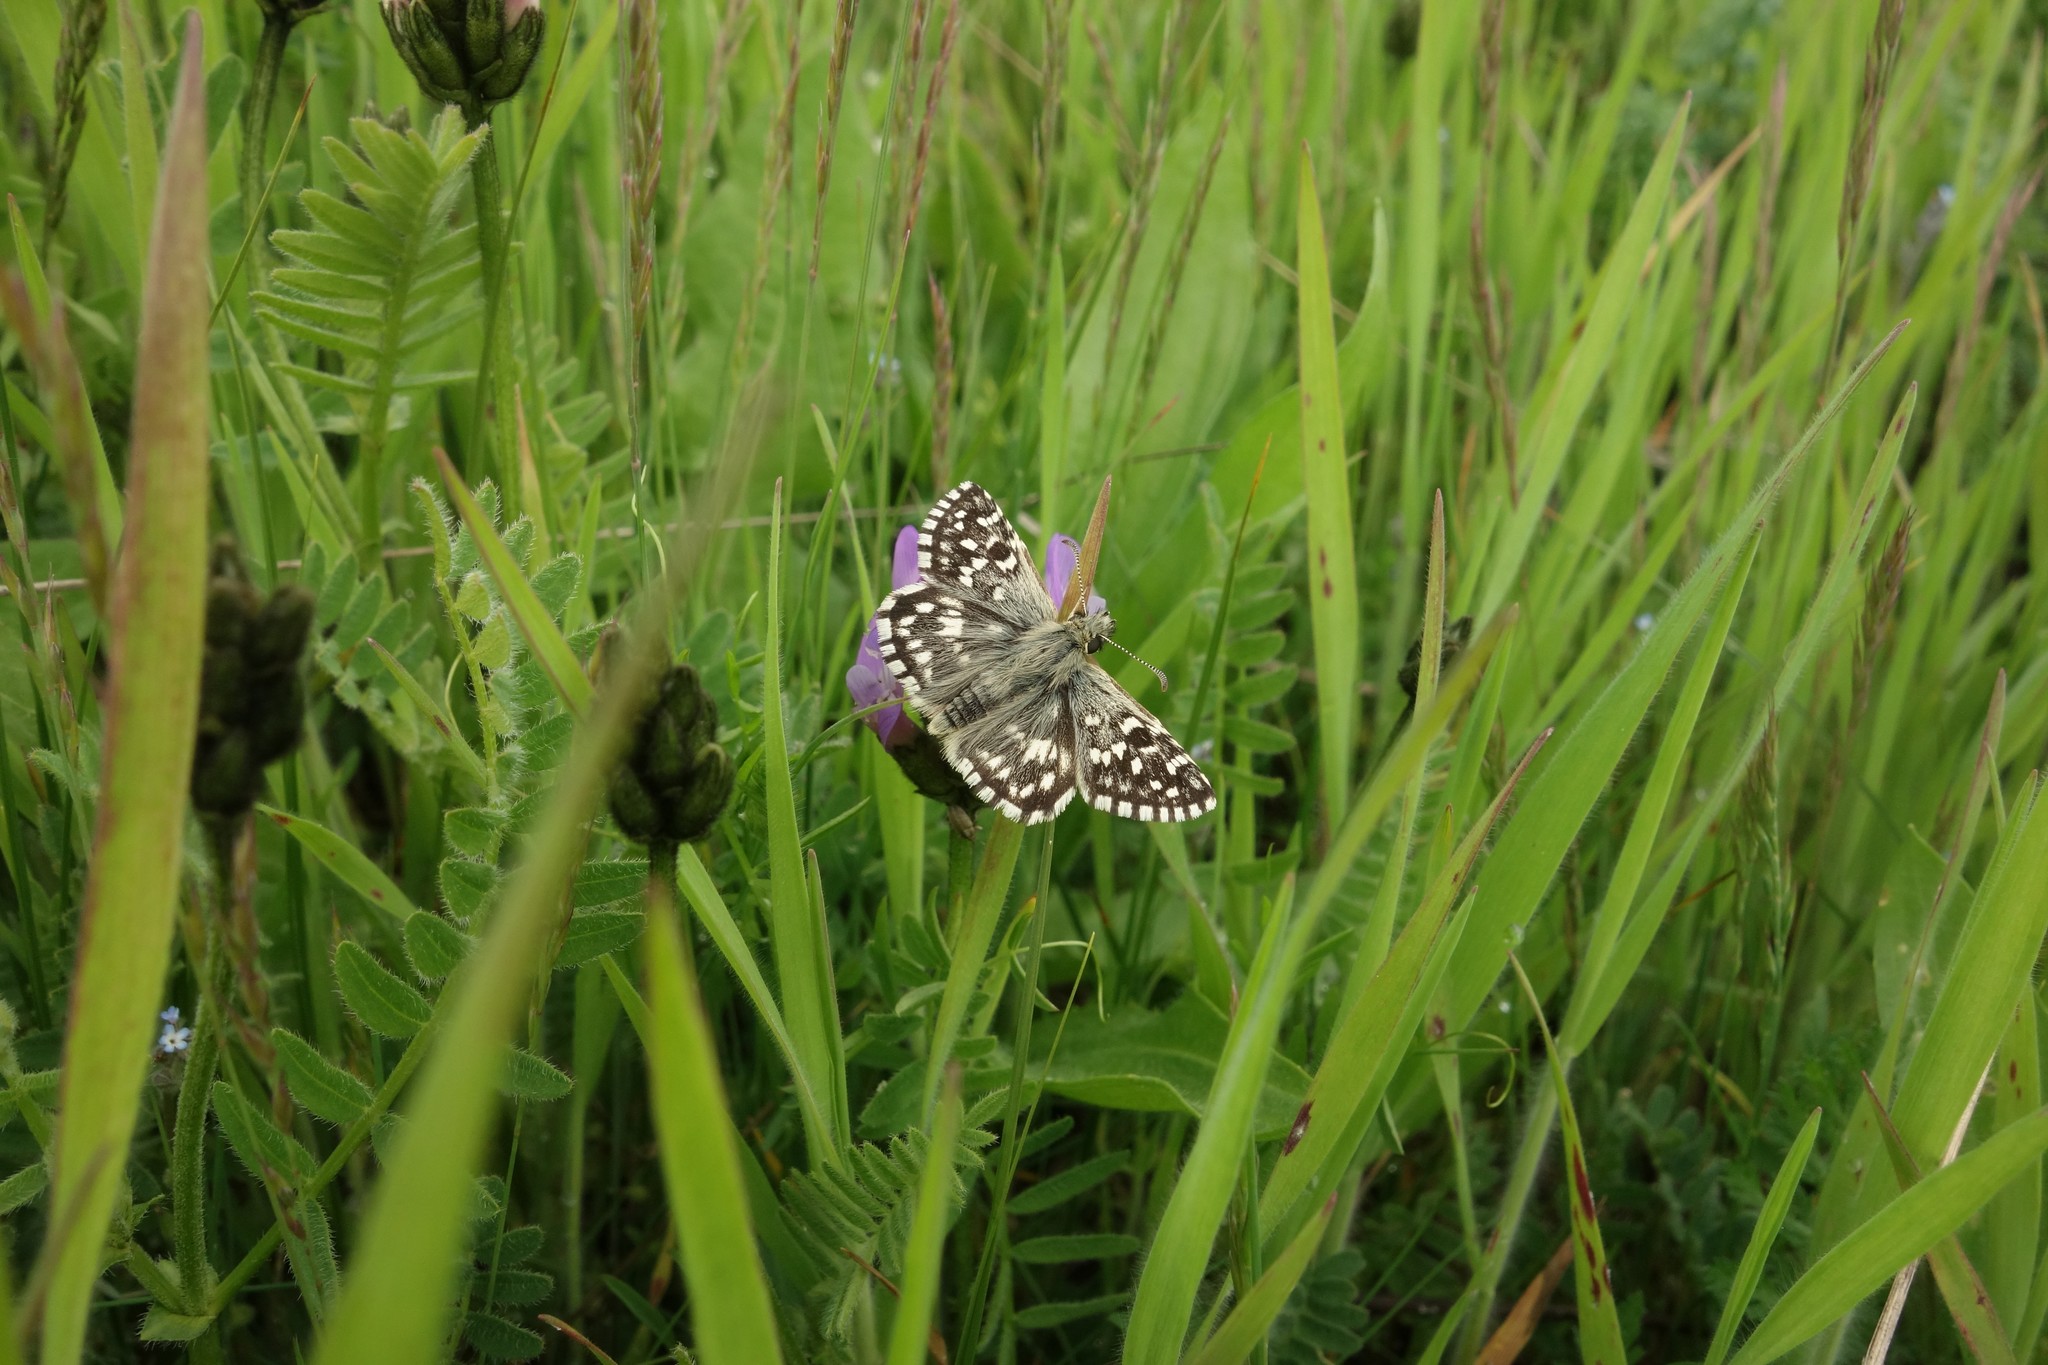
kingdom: Animalia
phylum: Arthropoda
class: Insecta
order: Lepidoptera
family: Hesperiidae
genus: Pyrgus
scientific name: Pyrgus malvae
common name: Grizzled skipper
